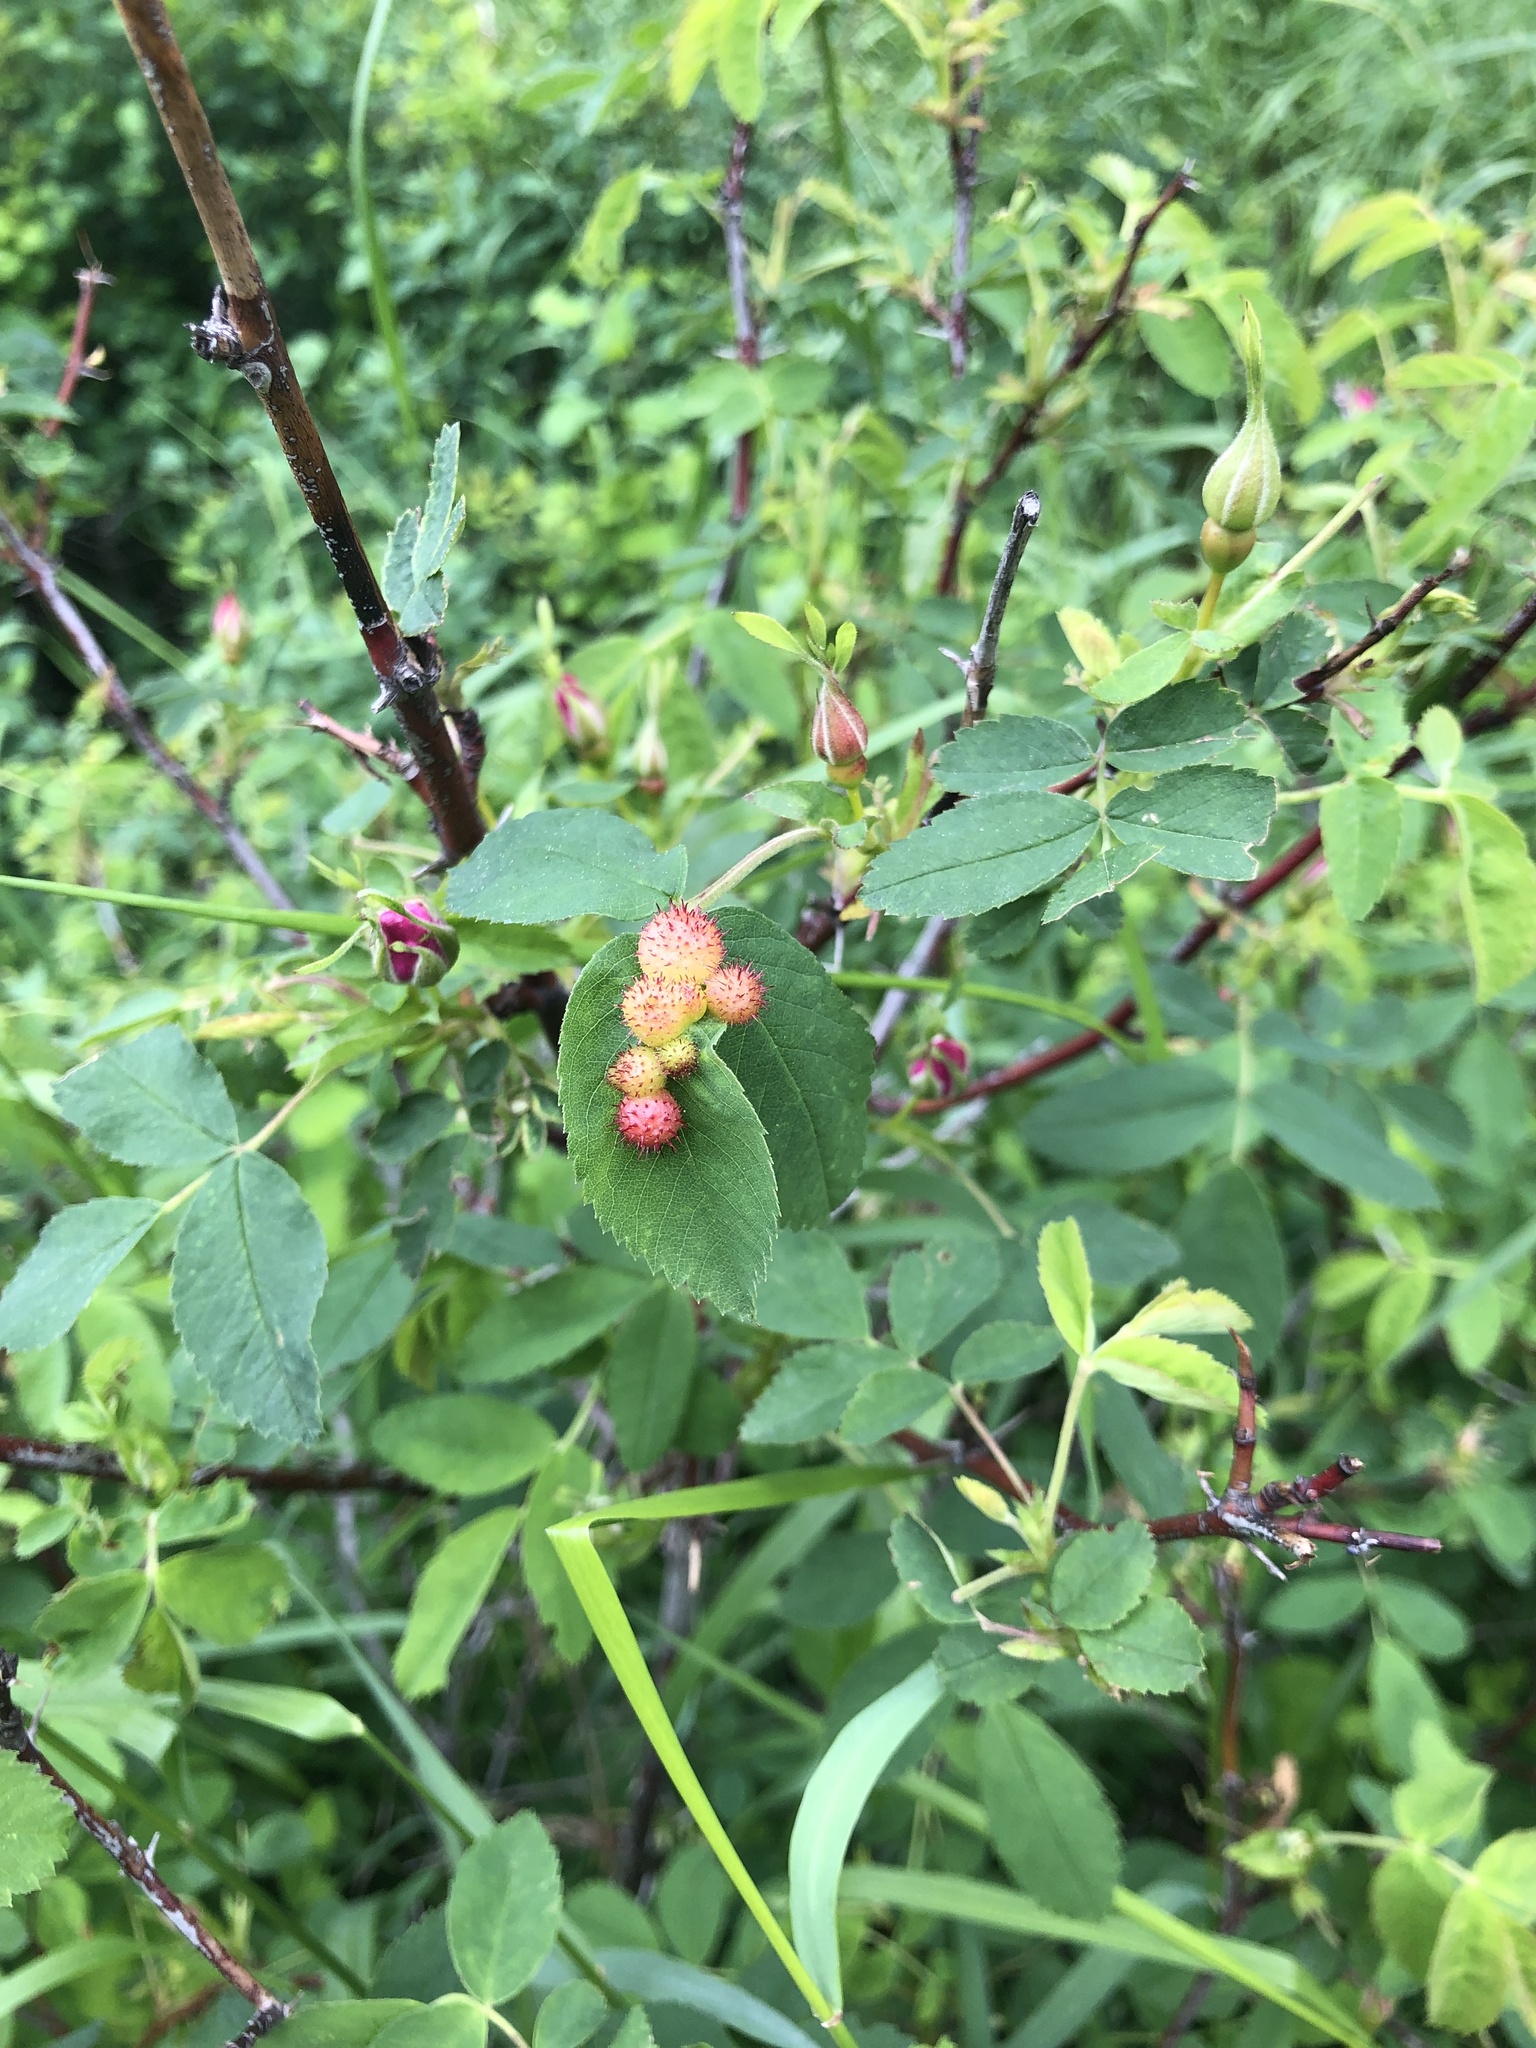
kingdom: Animalia
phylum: Arthropoda
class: Insecta
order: Hymenoptera
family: Cynipidae
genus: Diplolepis
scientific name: Diplolepis polita
